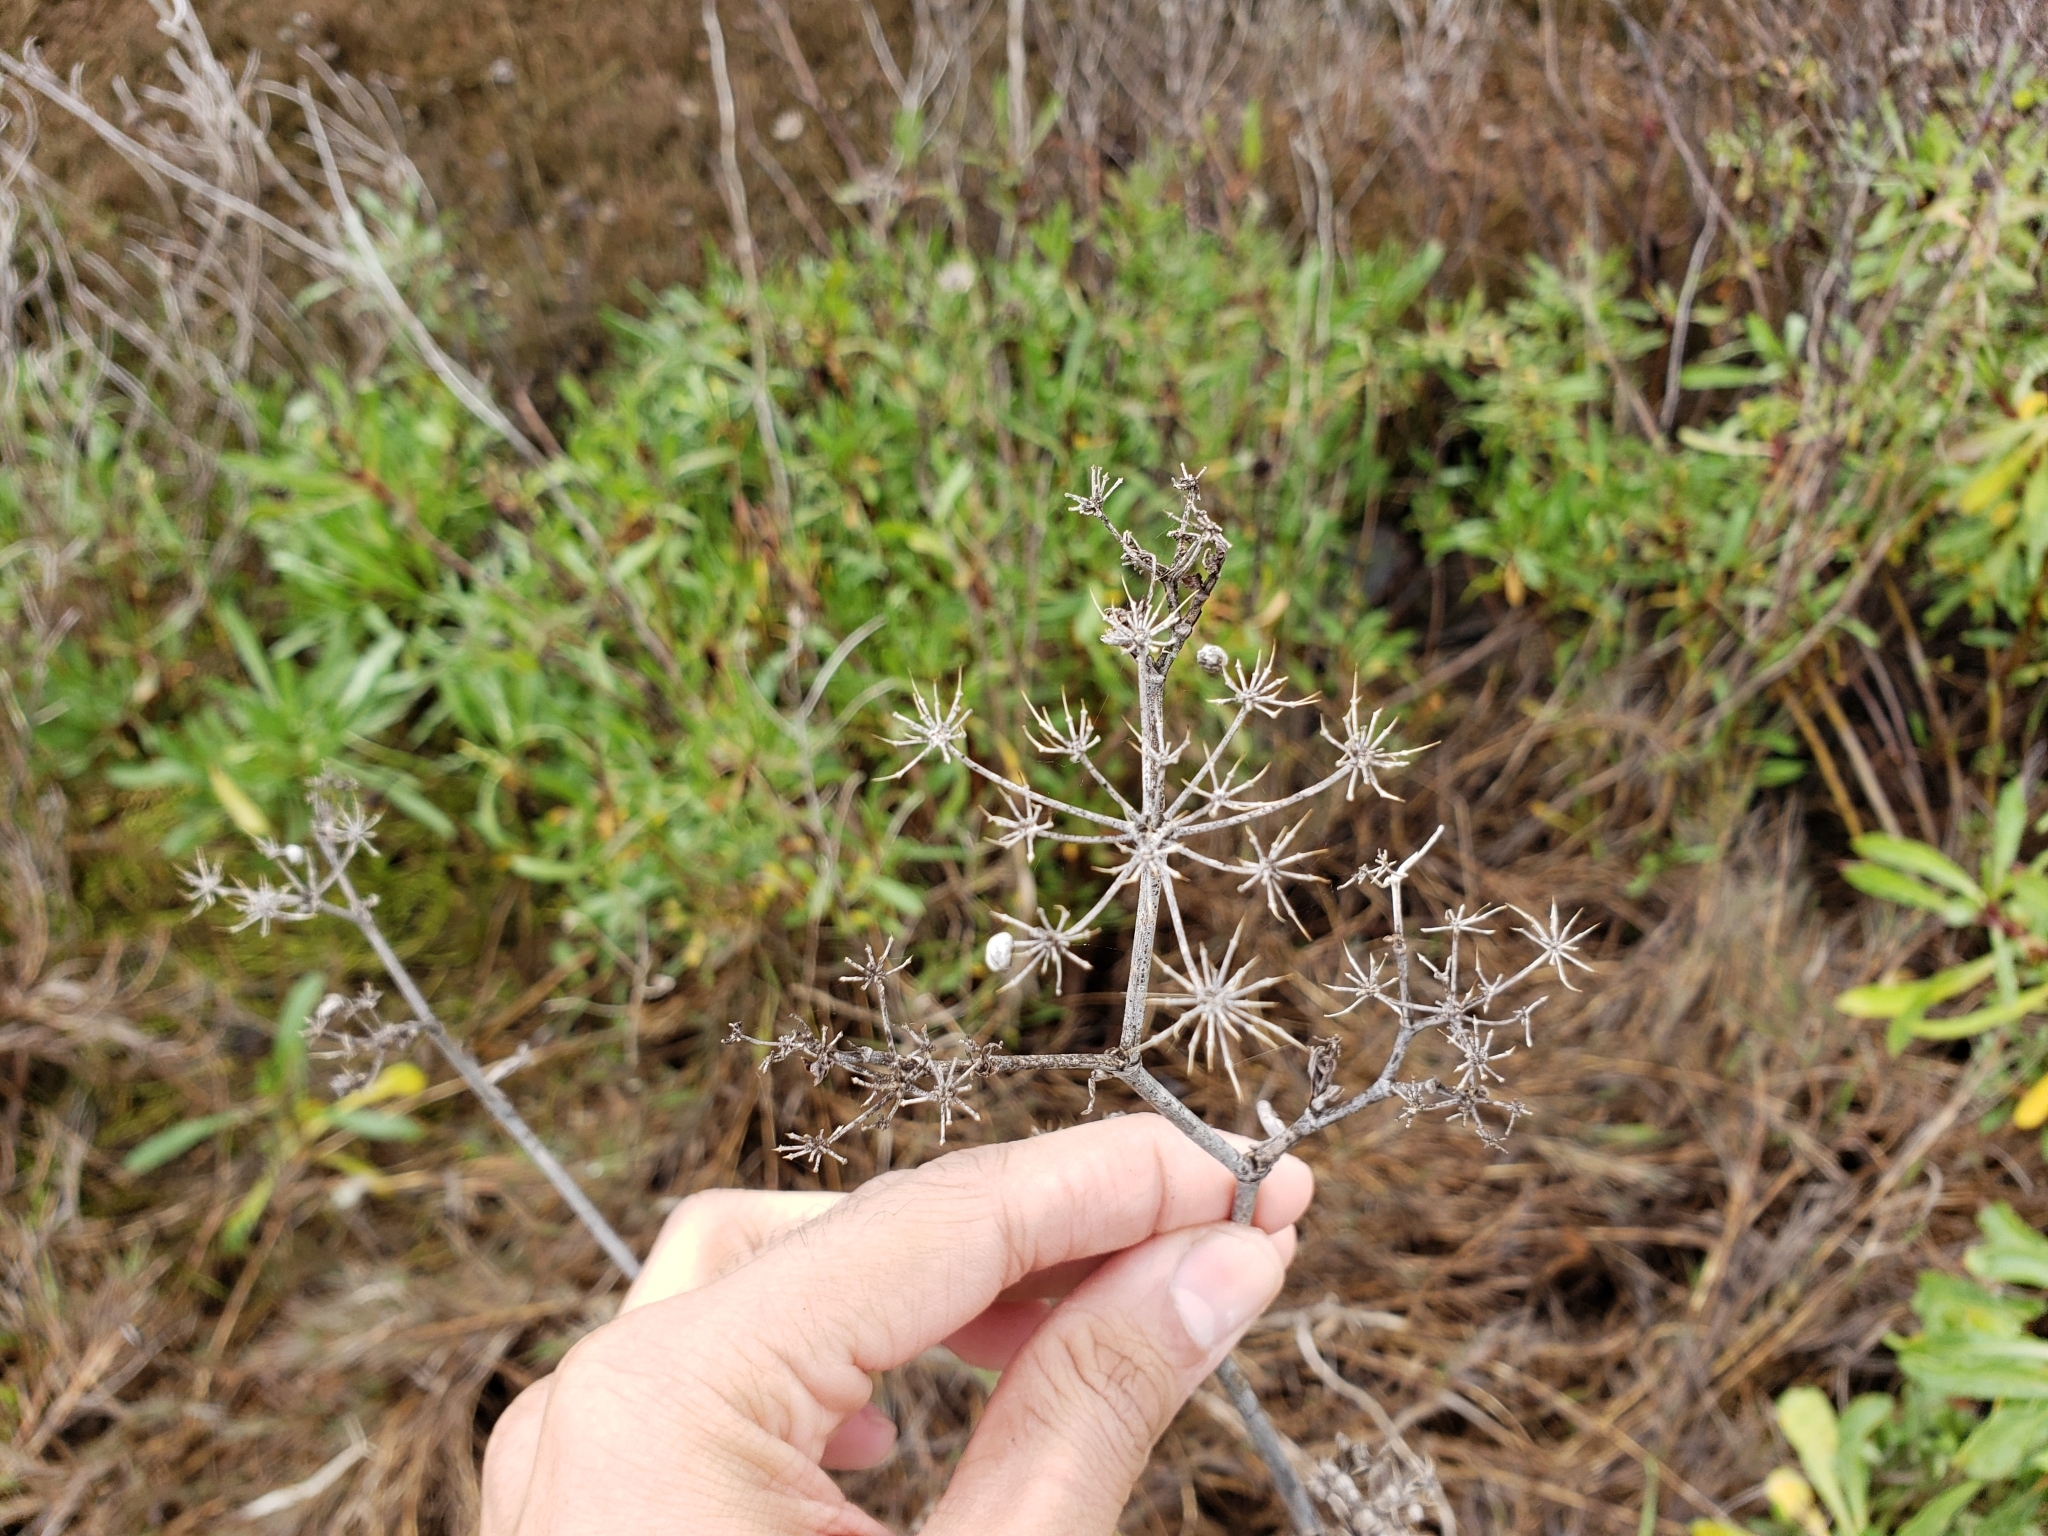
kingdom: Plantae
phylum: Tracheophyta
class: Magnoliopsida
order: Apiales
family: Apiaceae
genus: Foeniculum
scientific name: Foeniculum vulgare
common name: Fennel
